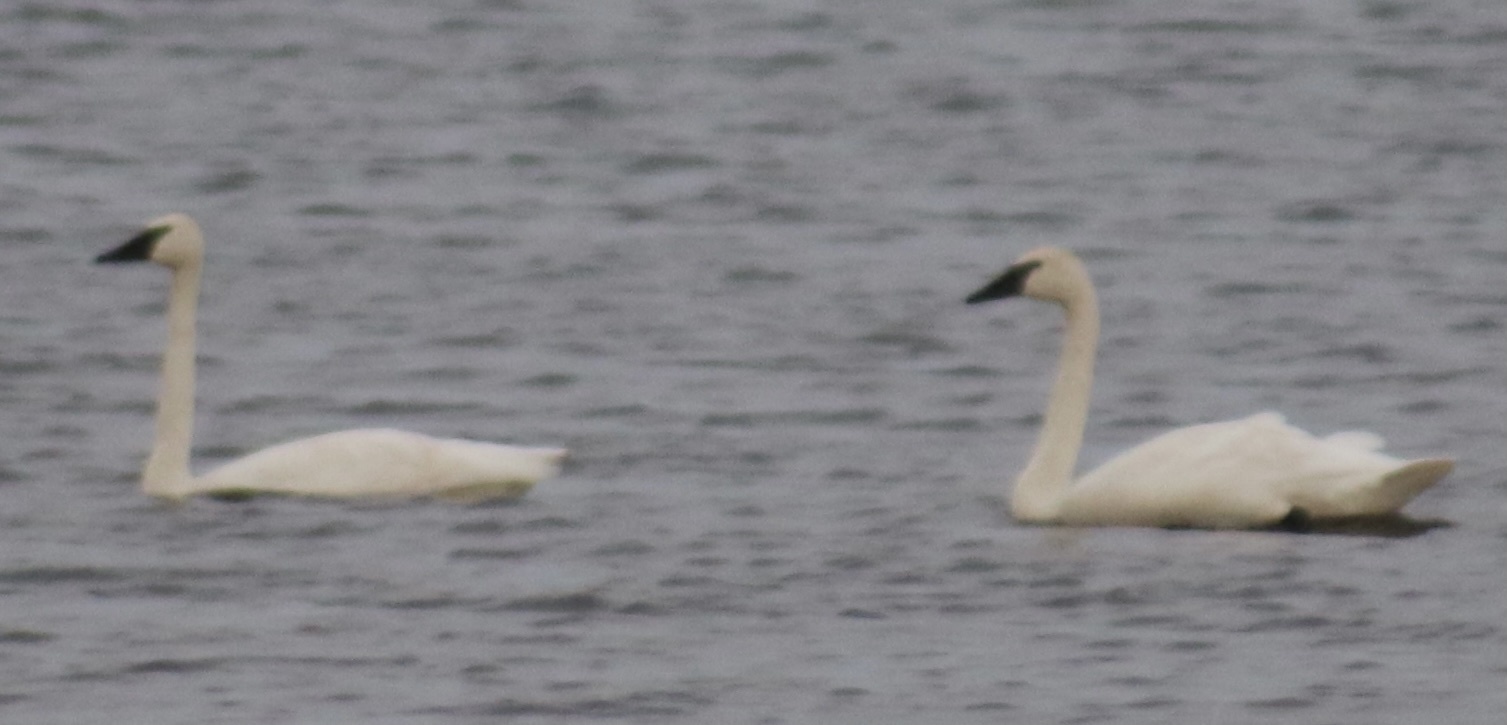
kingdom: Animalia
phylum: Chordata
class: Aves
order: Anseriformes
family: Anatidae
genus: Cygnus
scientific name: Cygnus buccinator
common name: Trumpeter swan
